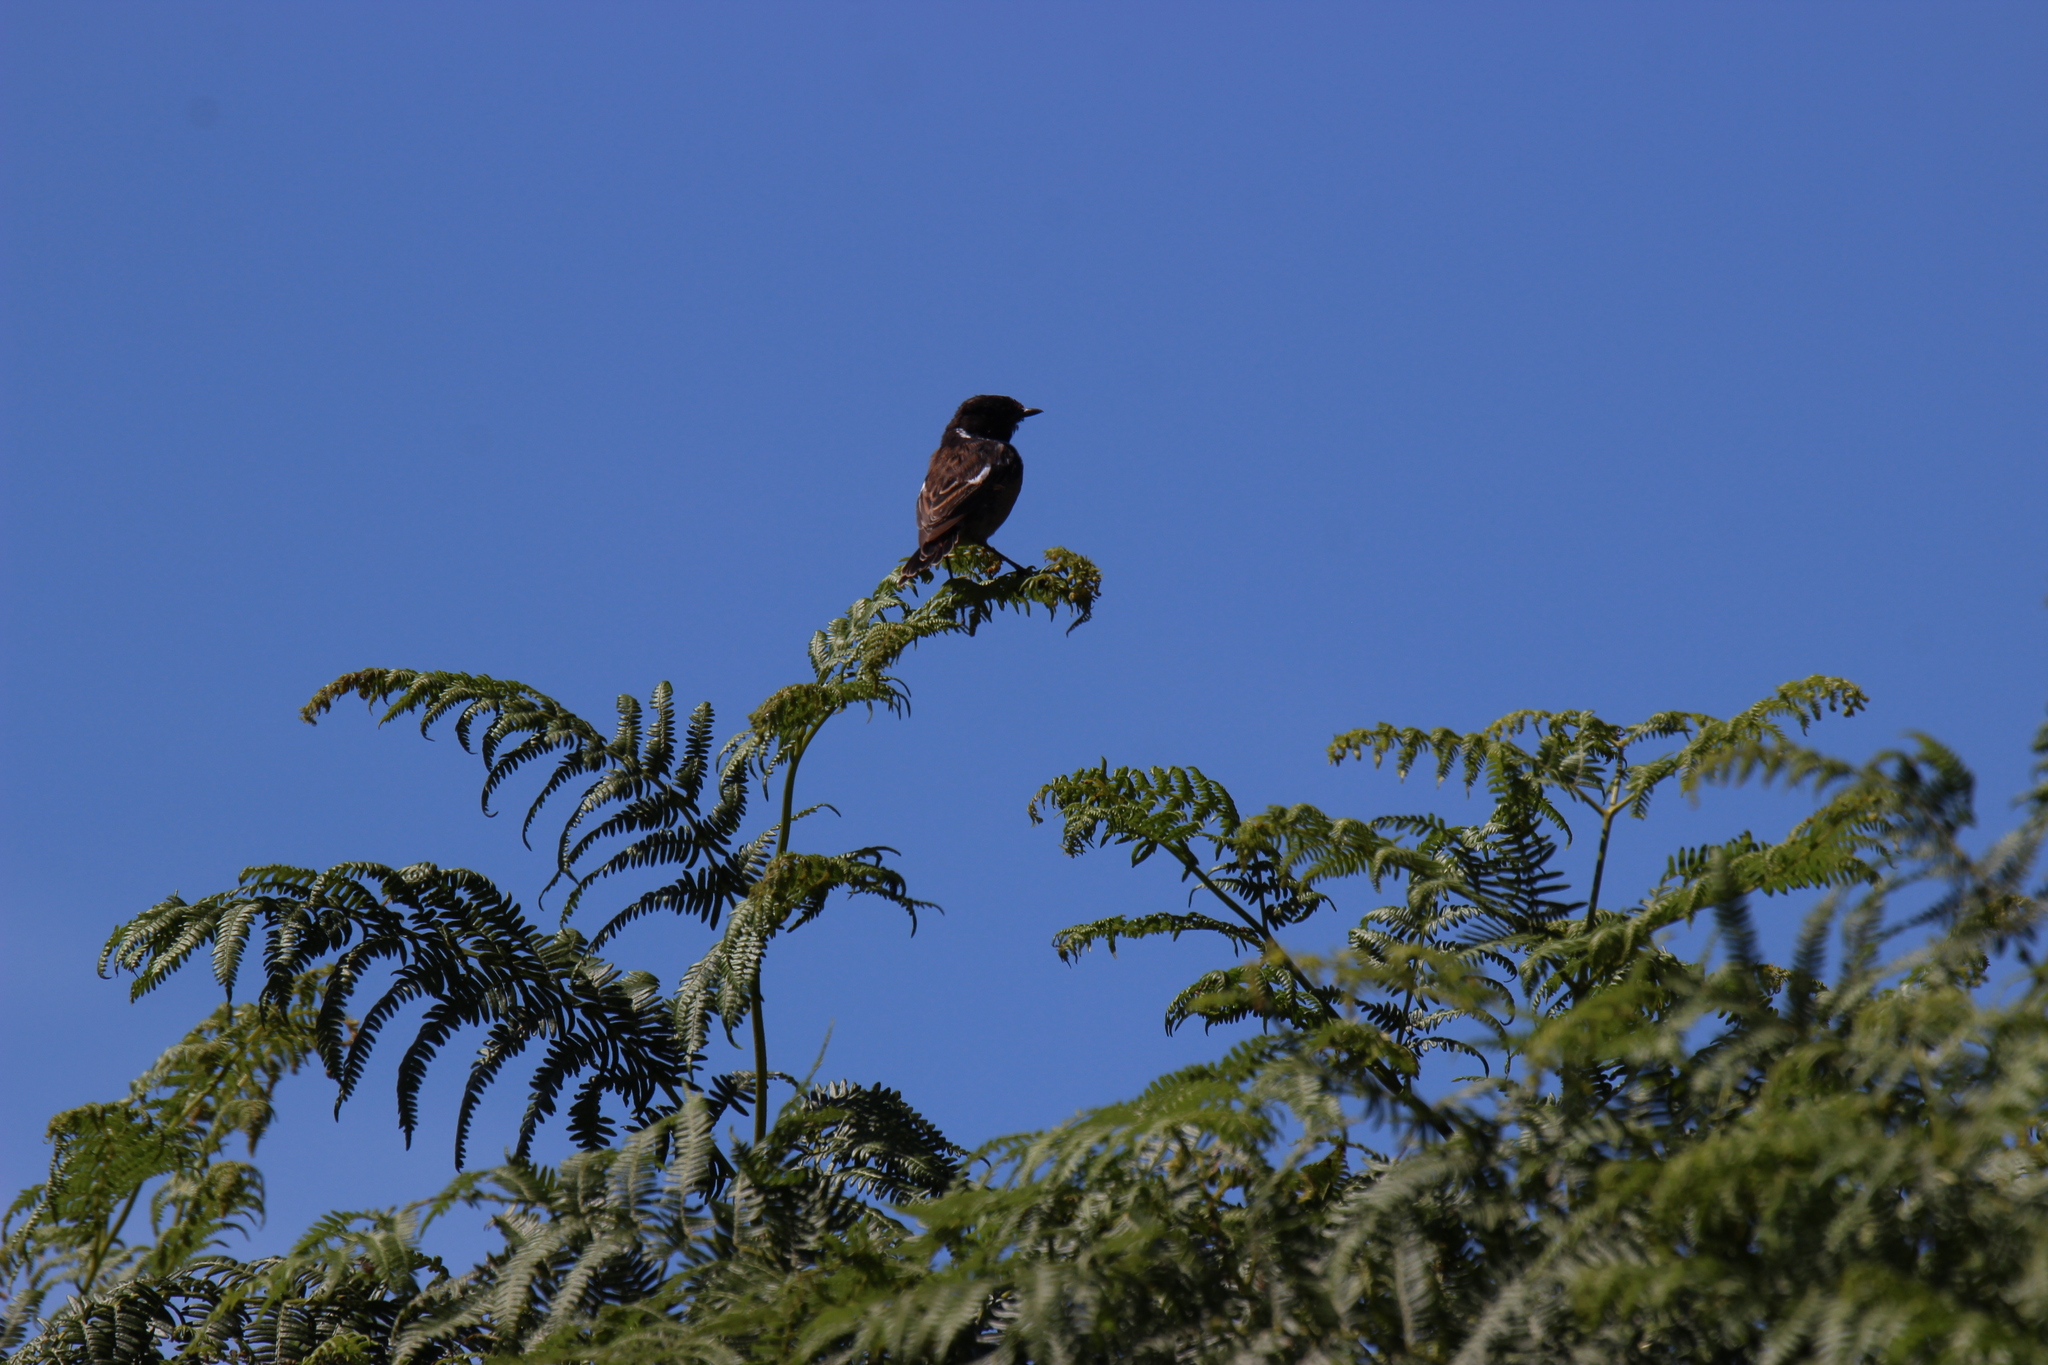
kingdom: Animalia
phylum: Chordata
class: Aves
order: Passeriformes
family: Muscicapidae
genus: Saxicola
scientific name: Saxicola rubicola
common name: European stonechat
